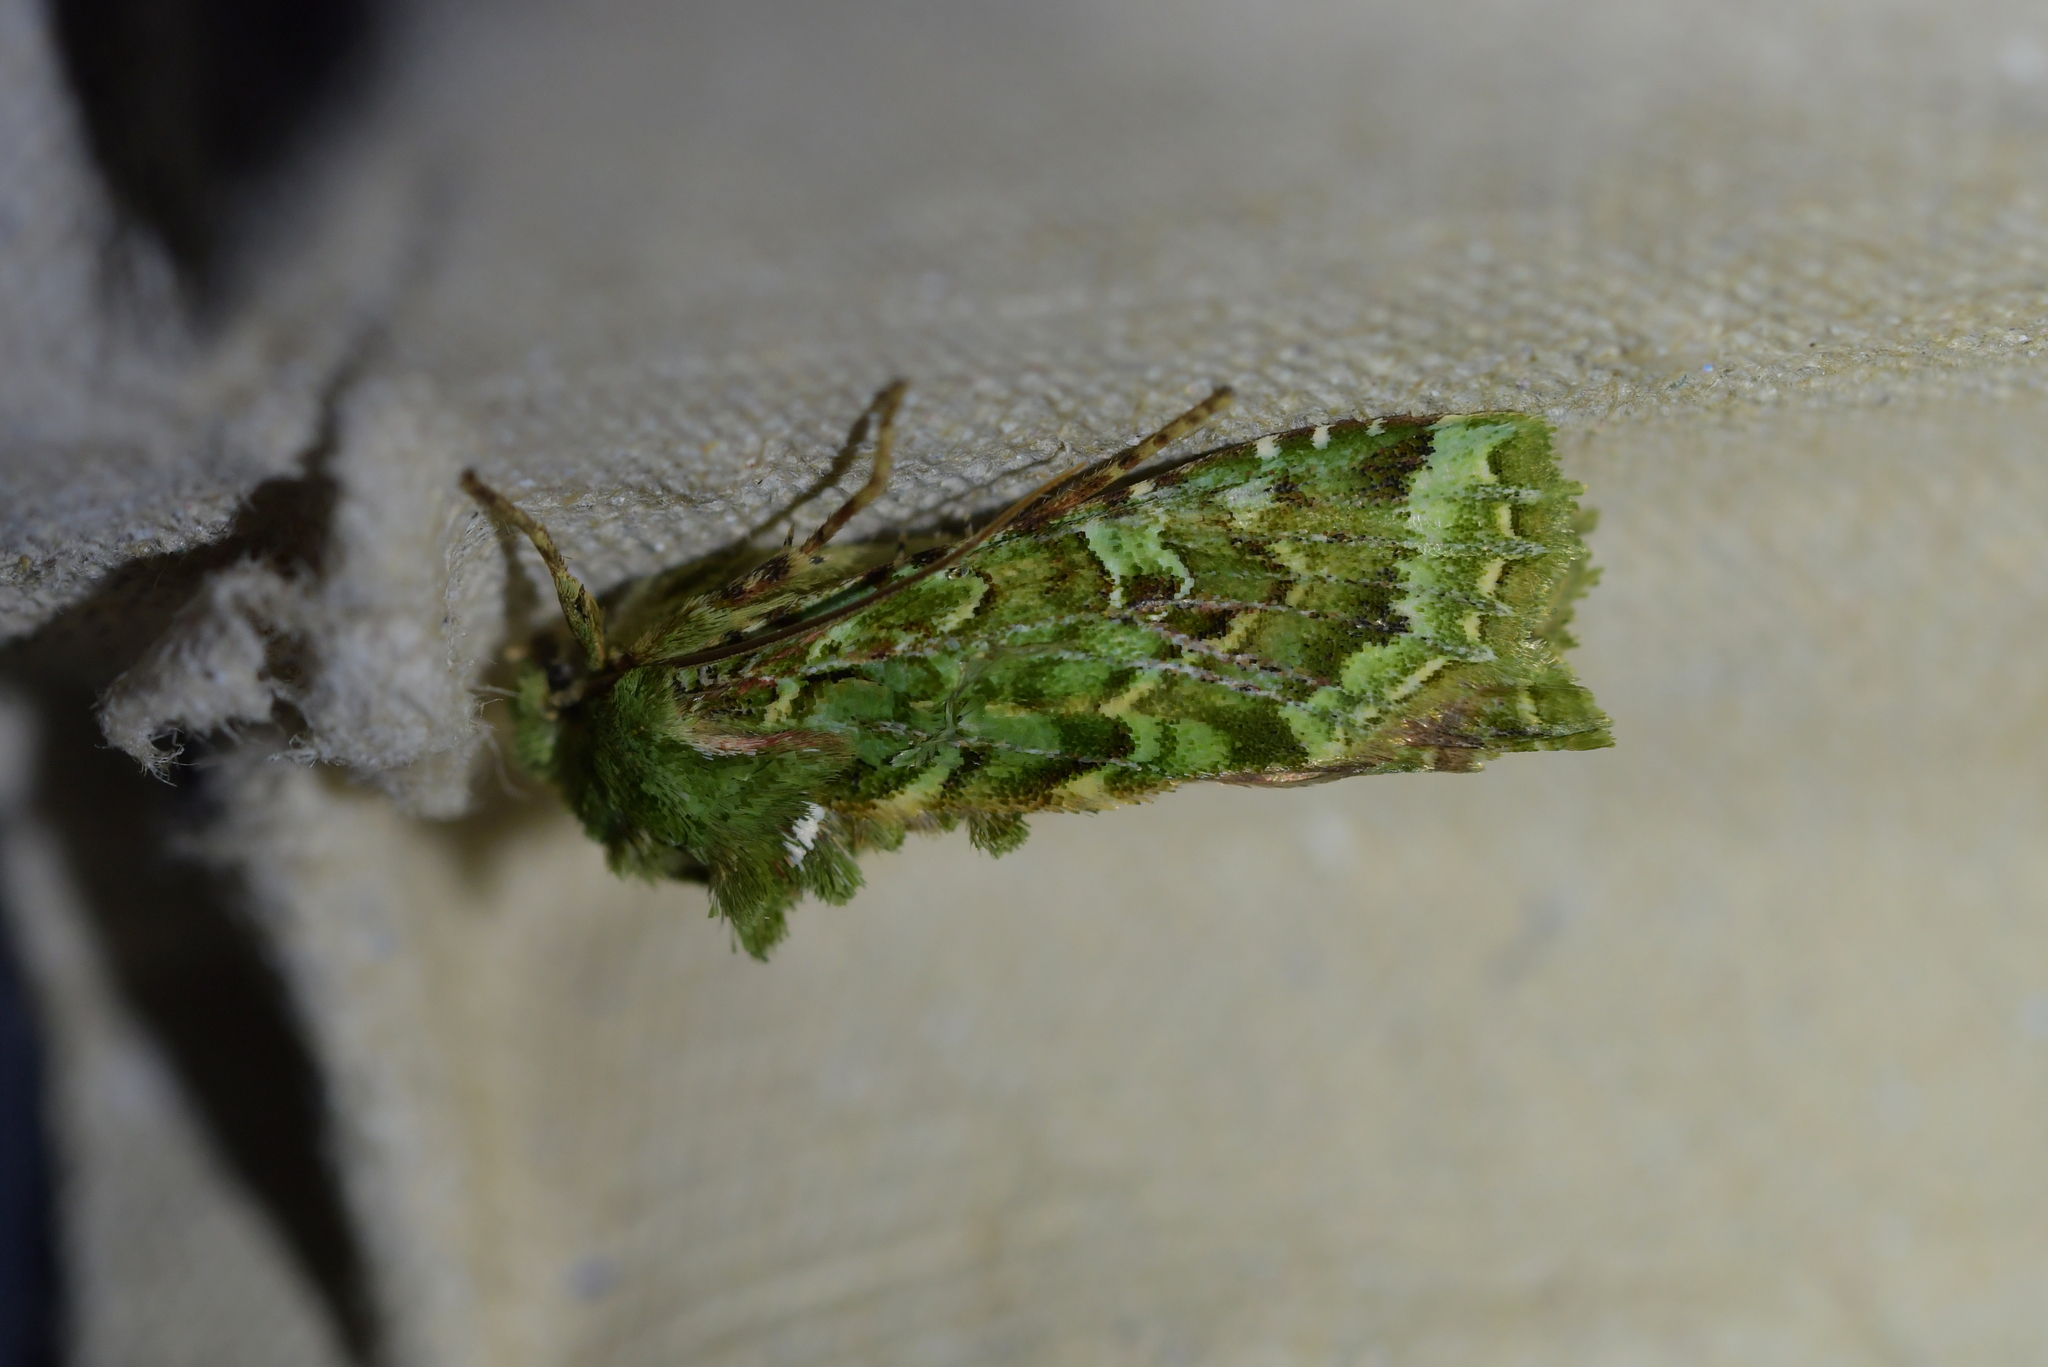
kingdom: Animalia
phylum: Arthropoda
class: Insecta
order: Lepidoptera
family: Noctuidae
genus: Feredayia
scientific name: Feredayia grammosa
